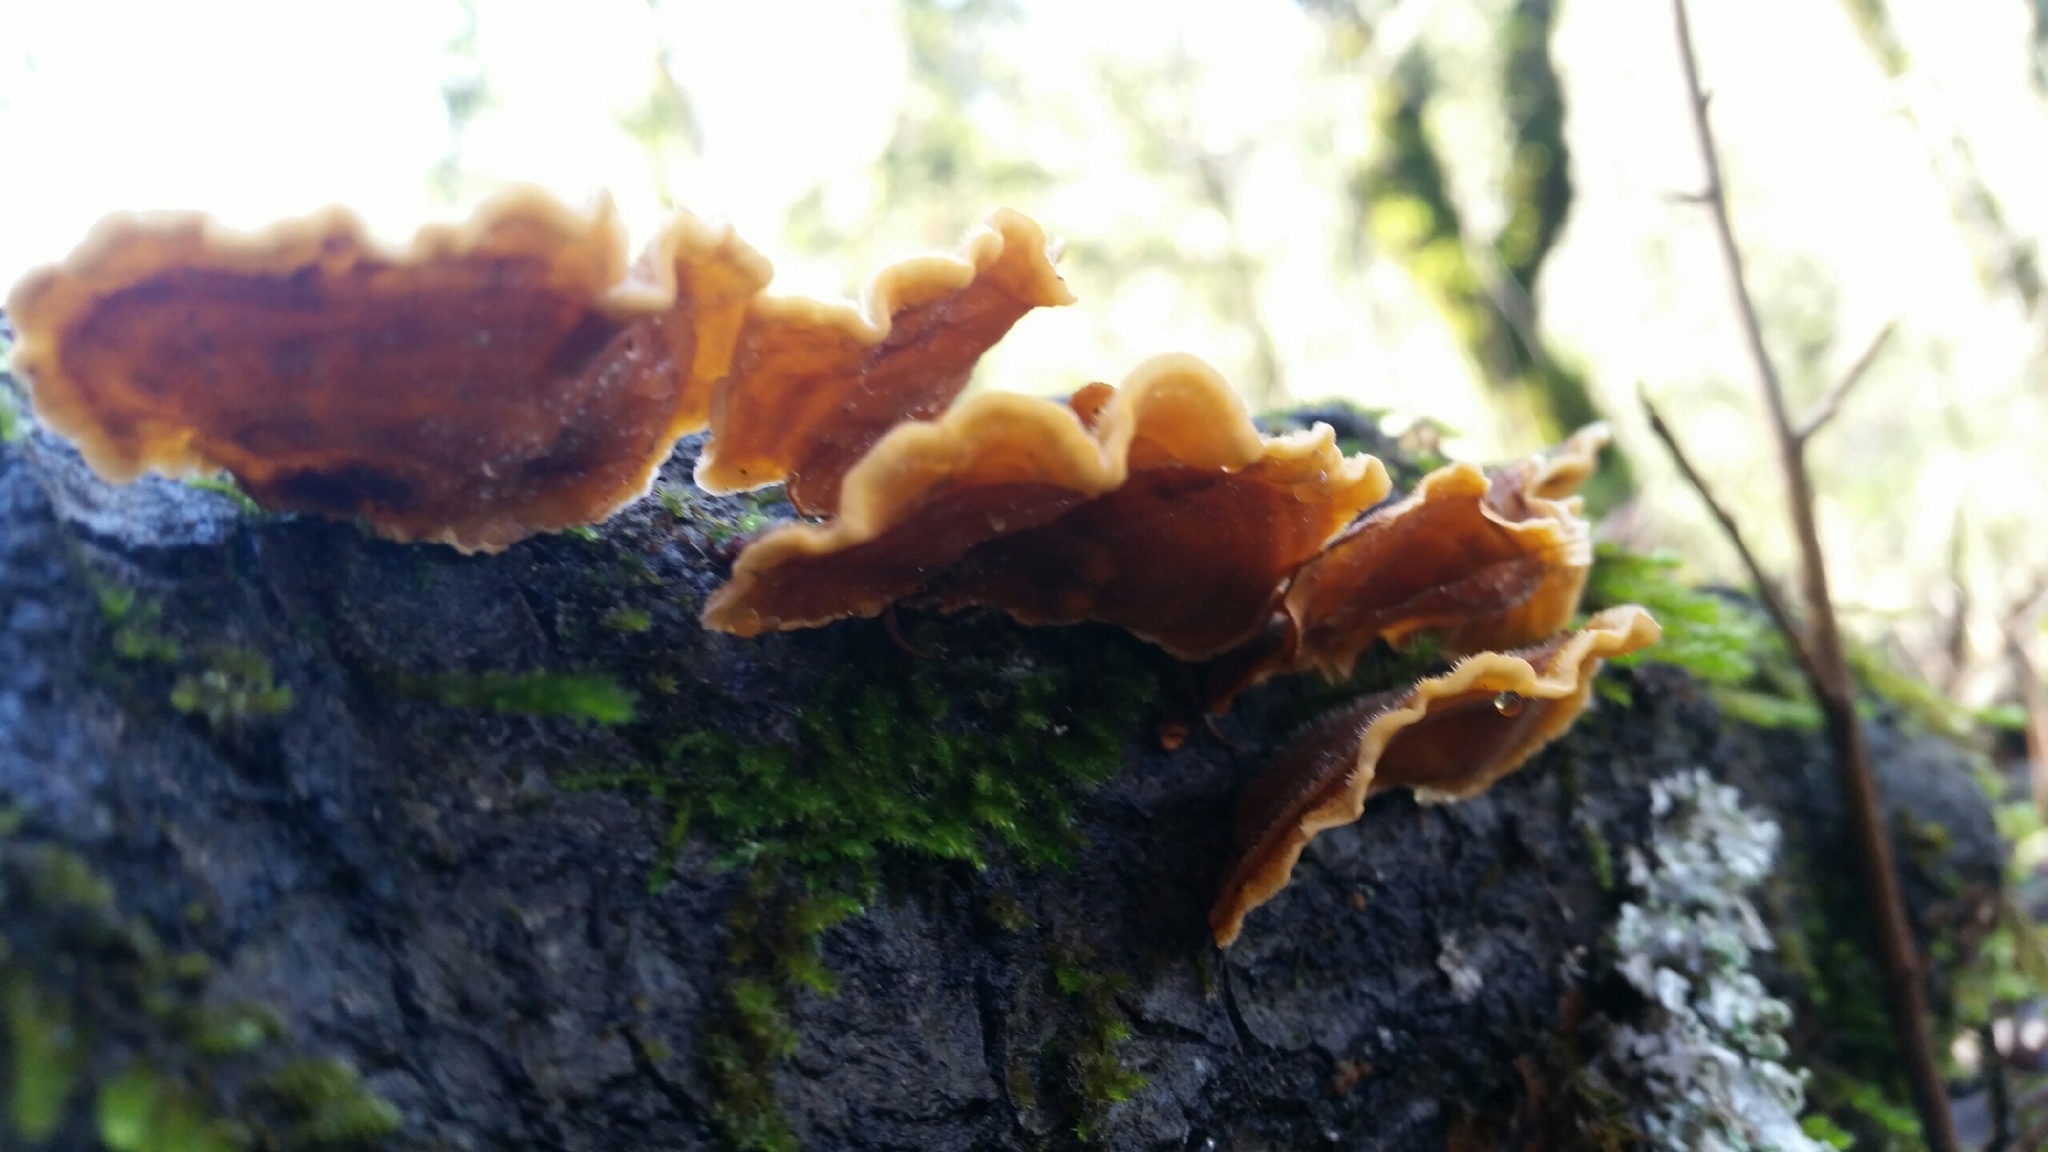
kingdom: Fungi
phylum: Basidiomycota
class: Agaricomycetes
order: Russulales
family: Stereaceae
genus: Stereum
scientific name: Stereum hirsutum
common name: Hairy curtain crust
